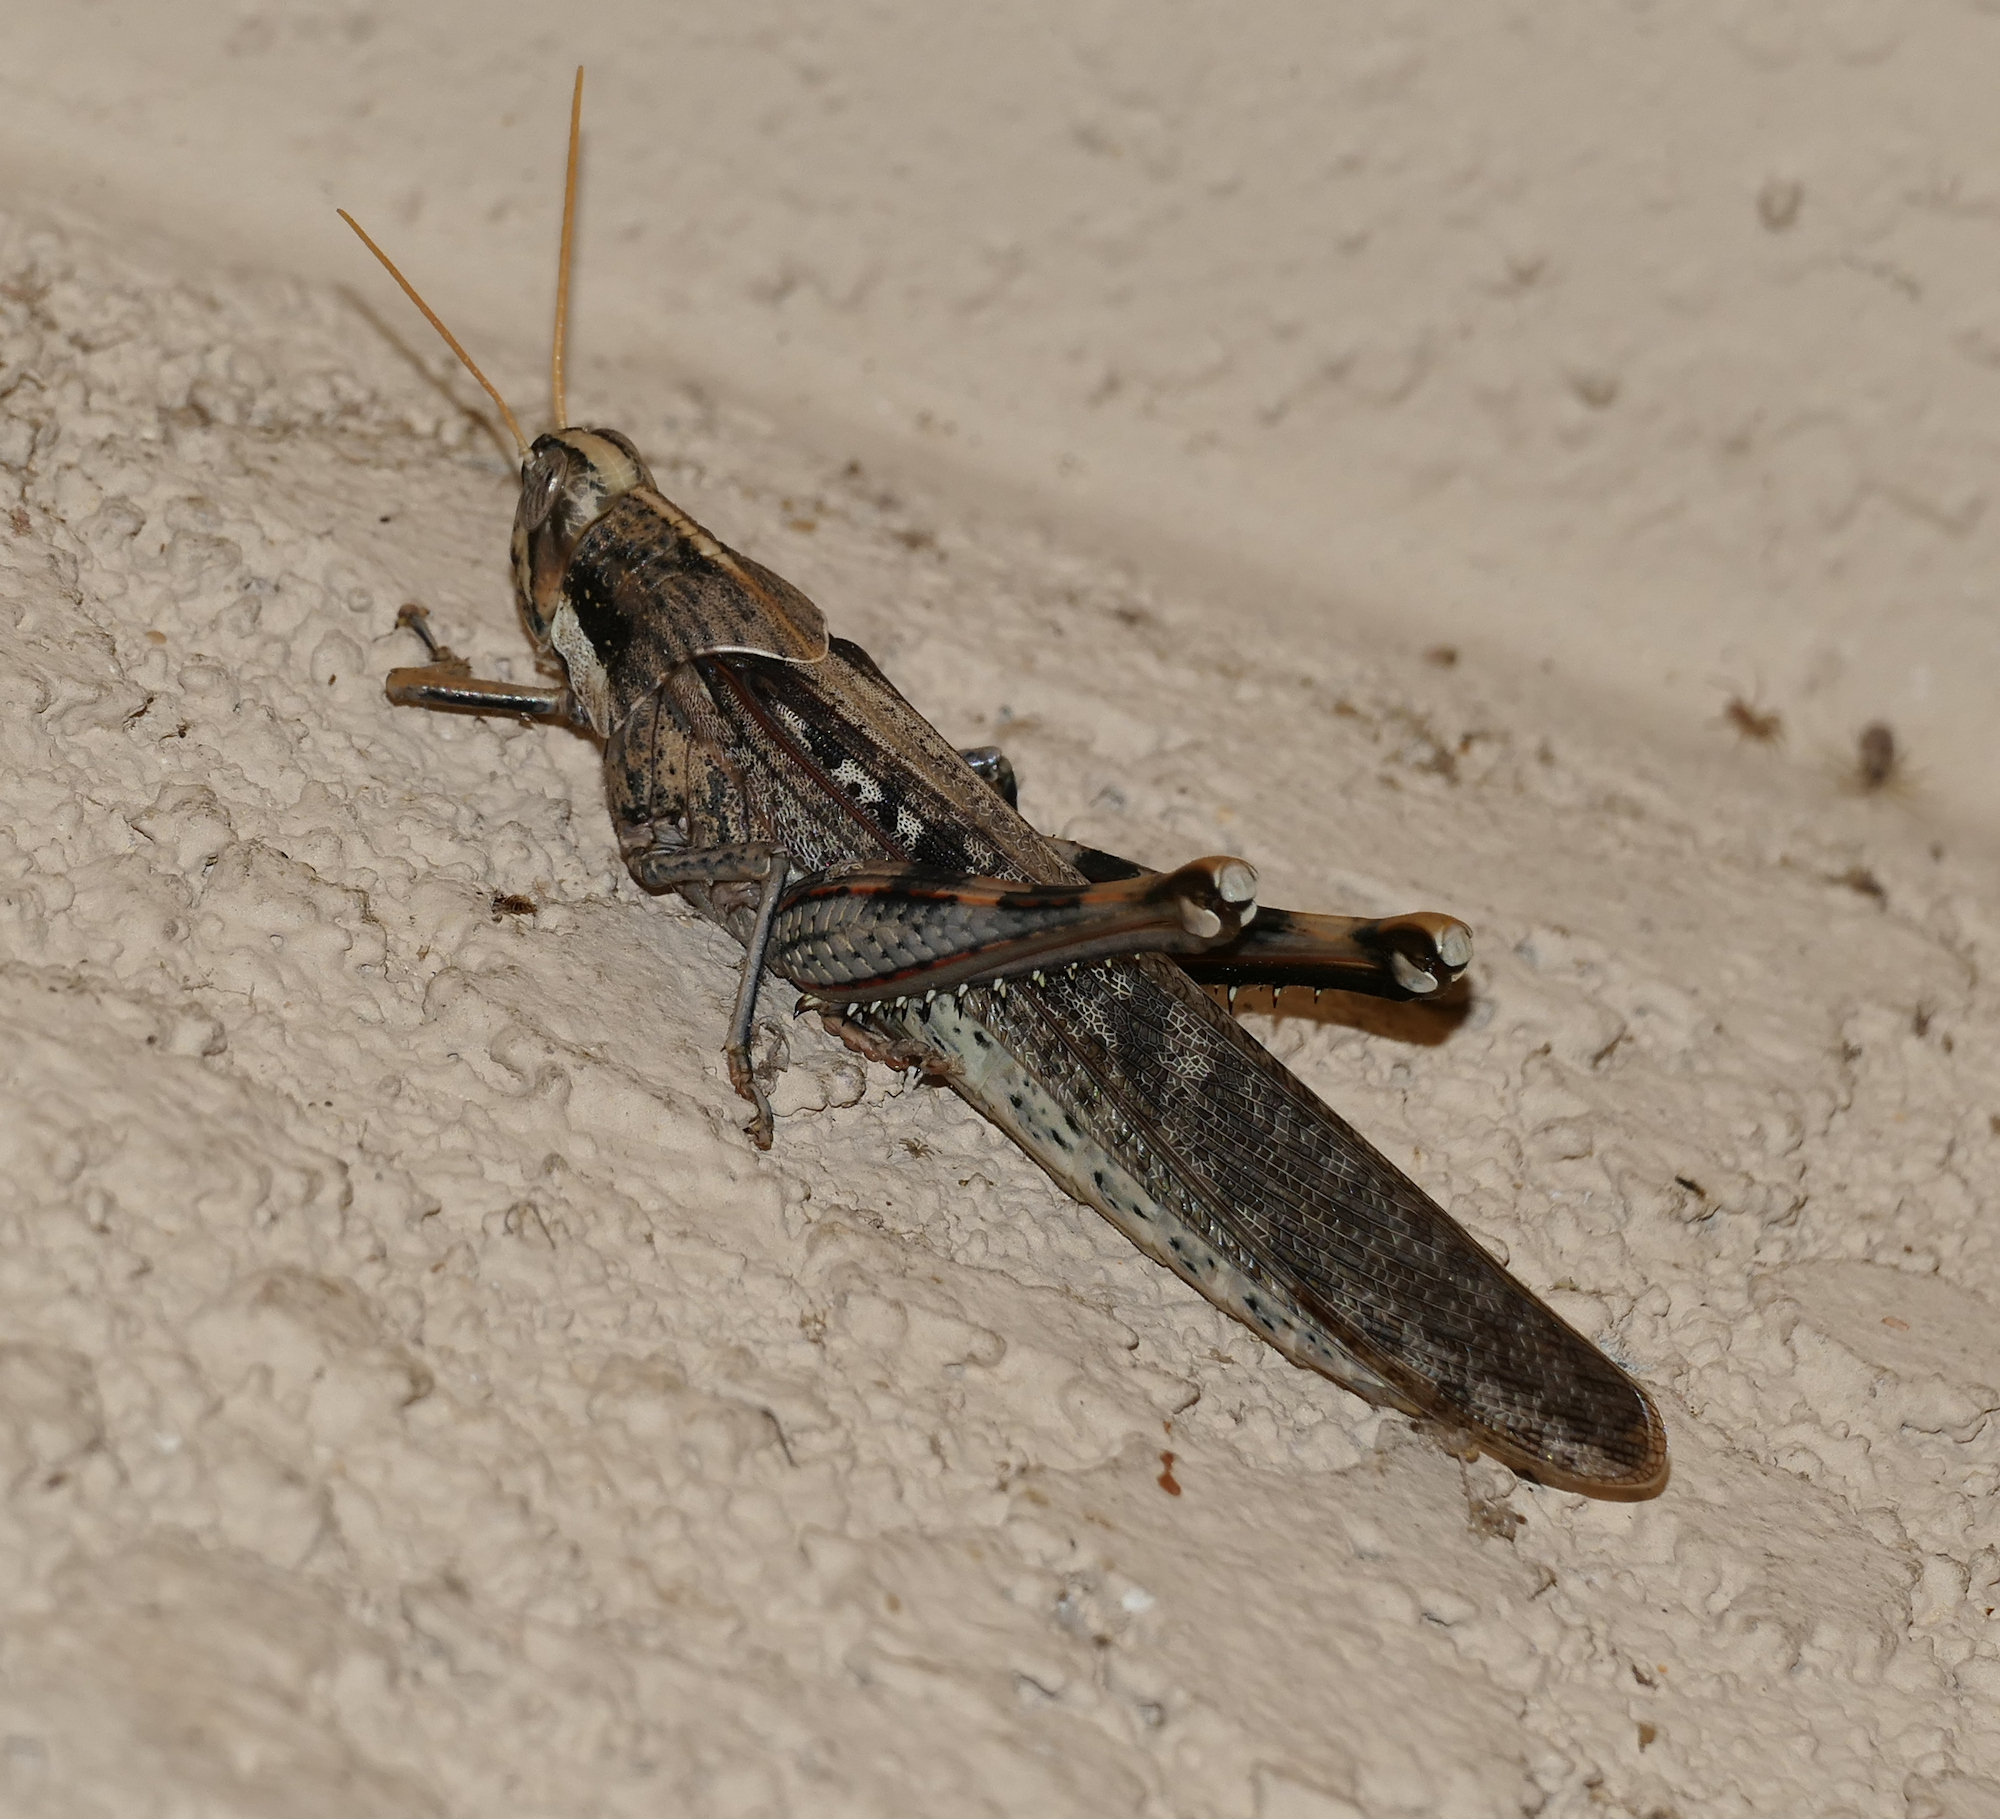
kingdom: Animalia
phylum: Arthropoda
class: Insecta
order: Orthoptera
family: Acrididae
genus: Schistocerca
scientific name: Schistocerca nitens
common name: Vagrant grasshopper
